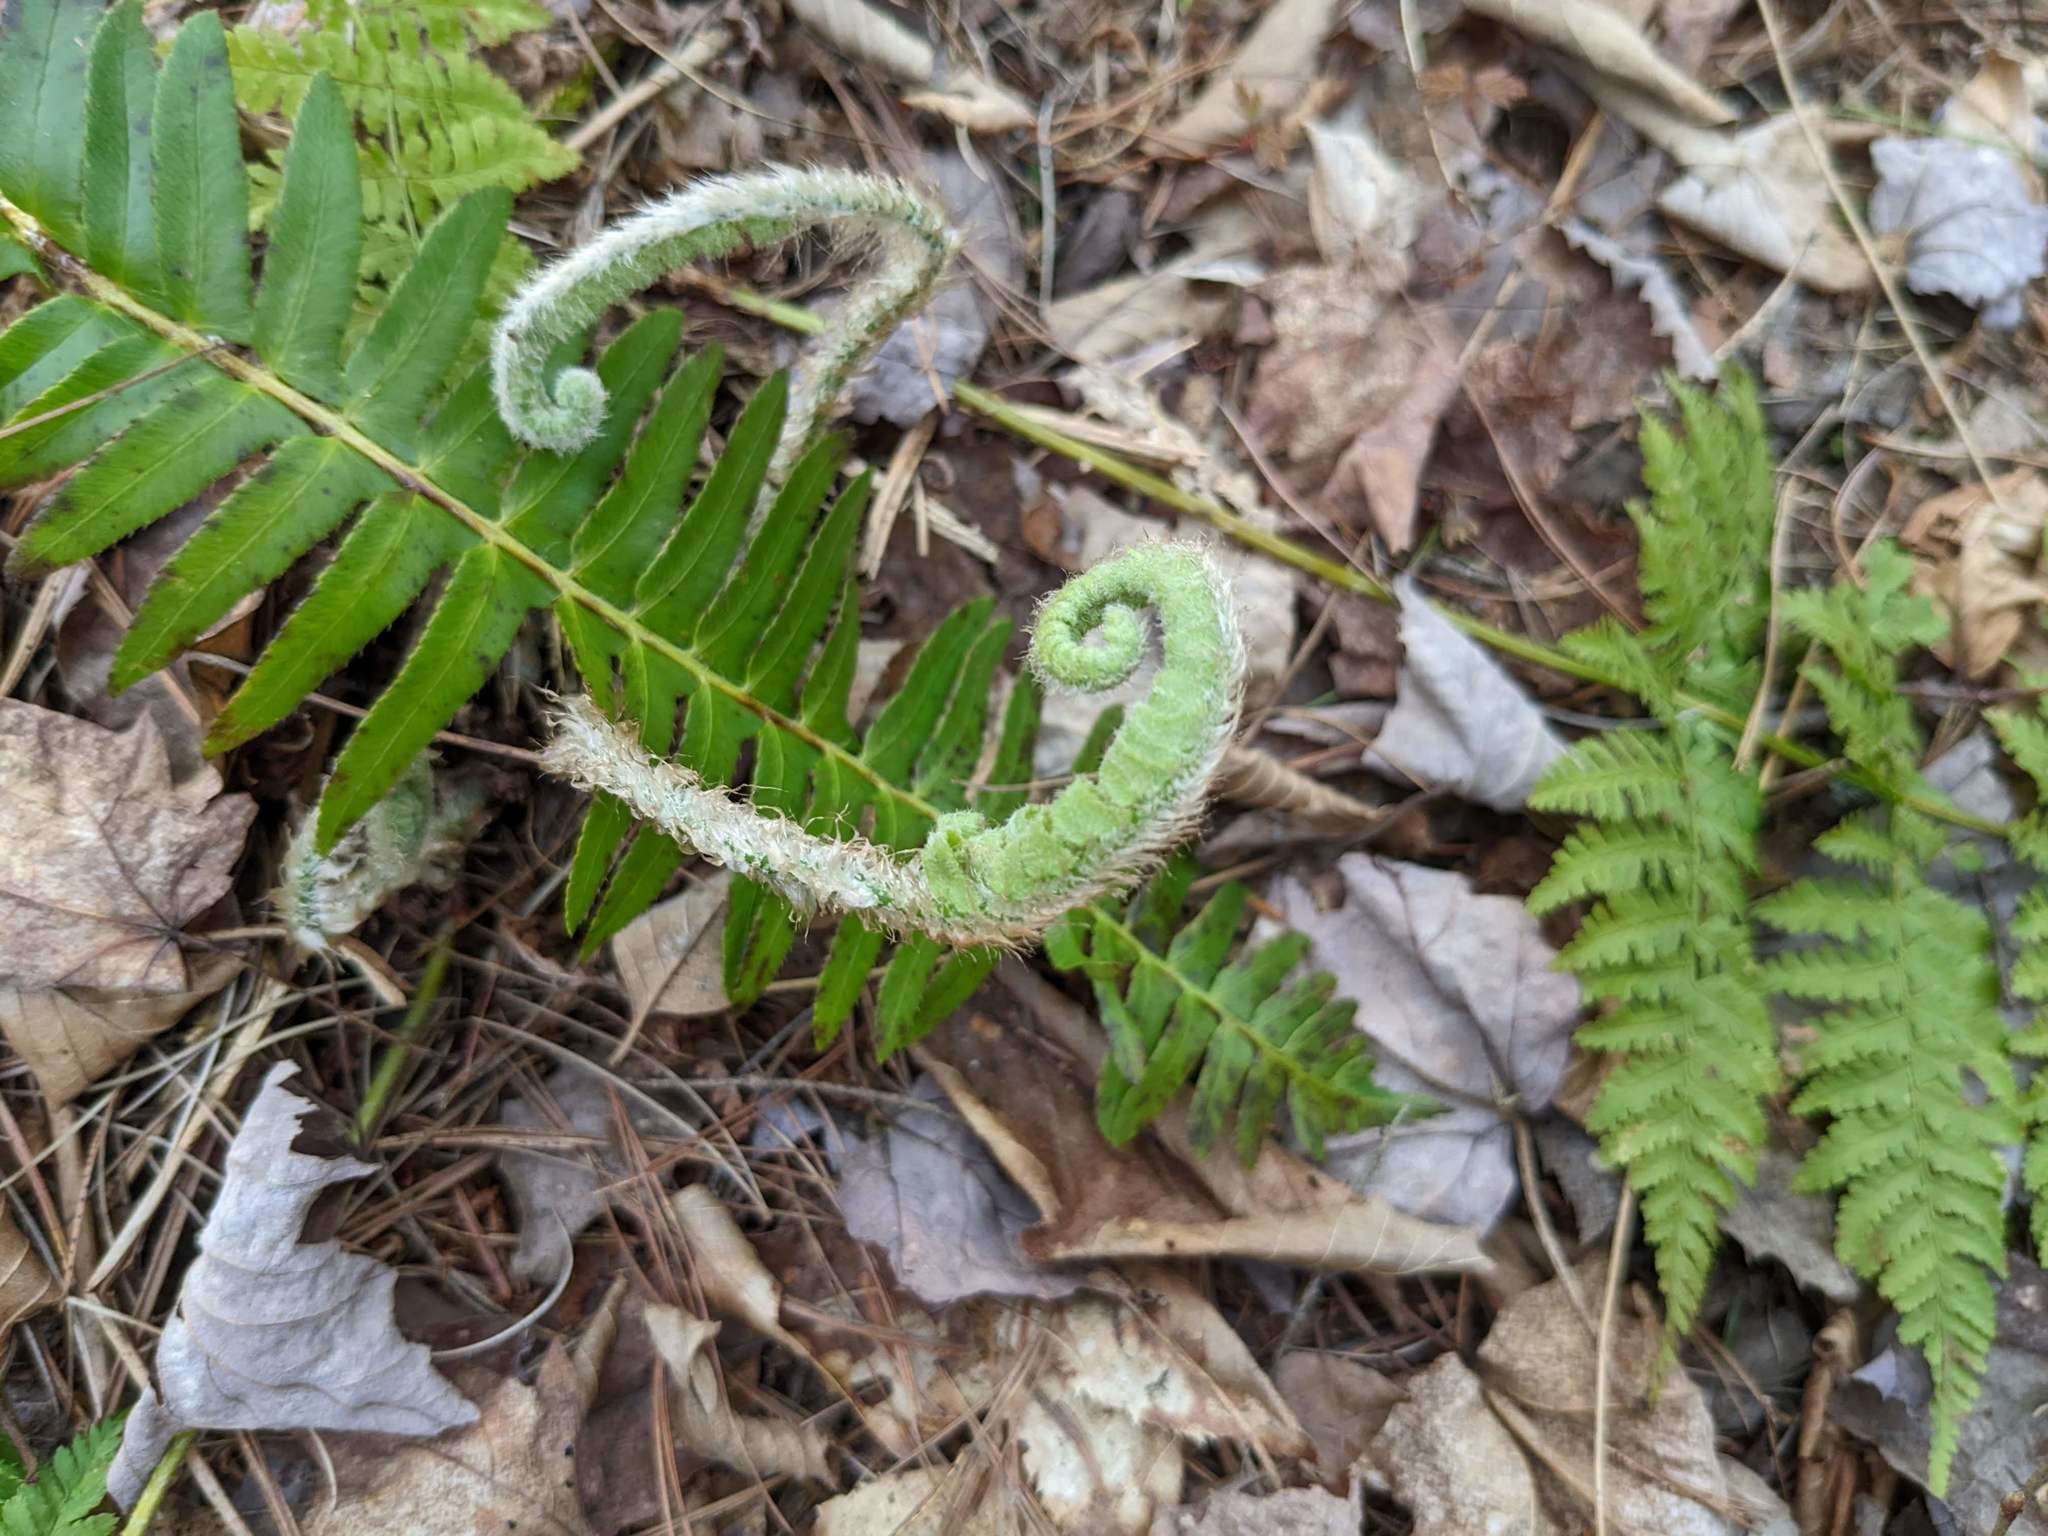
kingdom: Plantae
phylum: Tracheophyta
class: Polypodiopsida
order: Polypodiales
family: Dryopteridaceae
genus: Polystichum
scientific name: Polystichum acrostichoides
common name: Christmas fern
